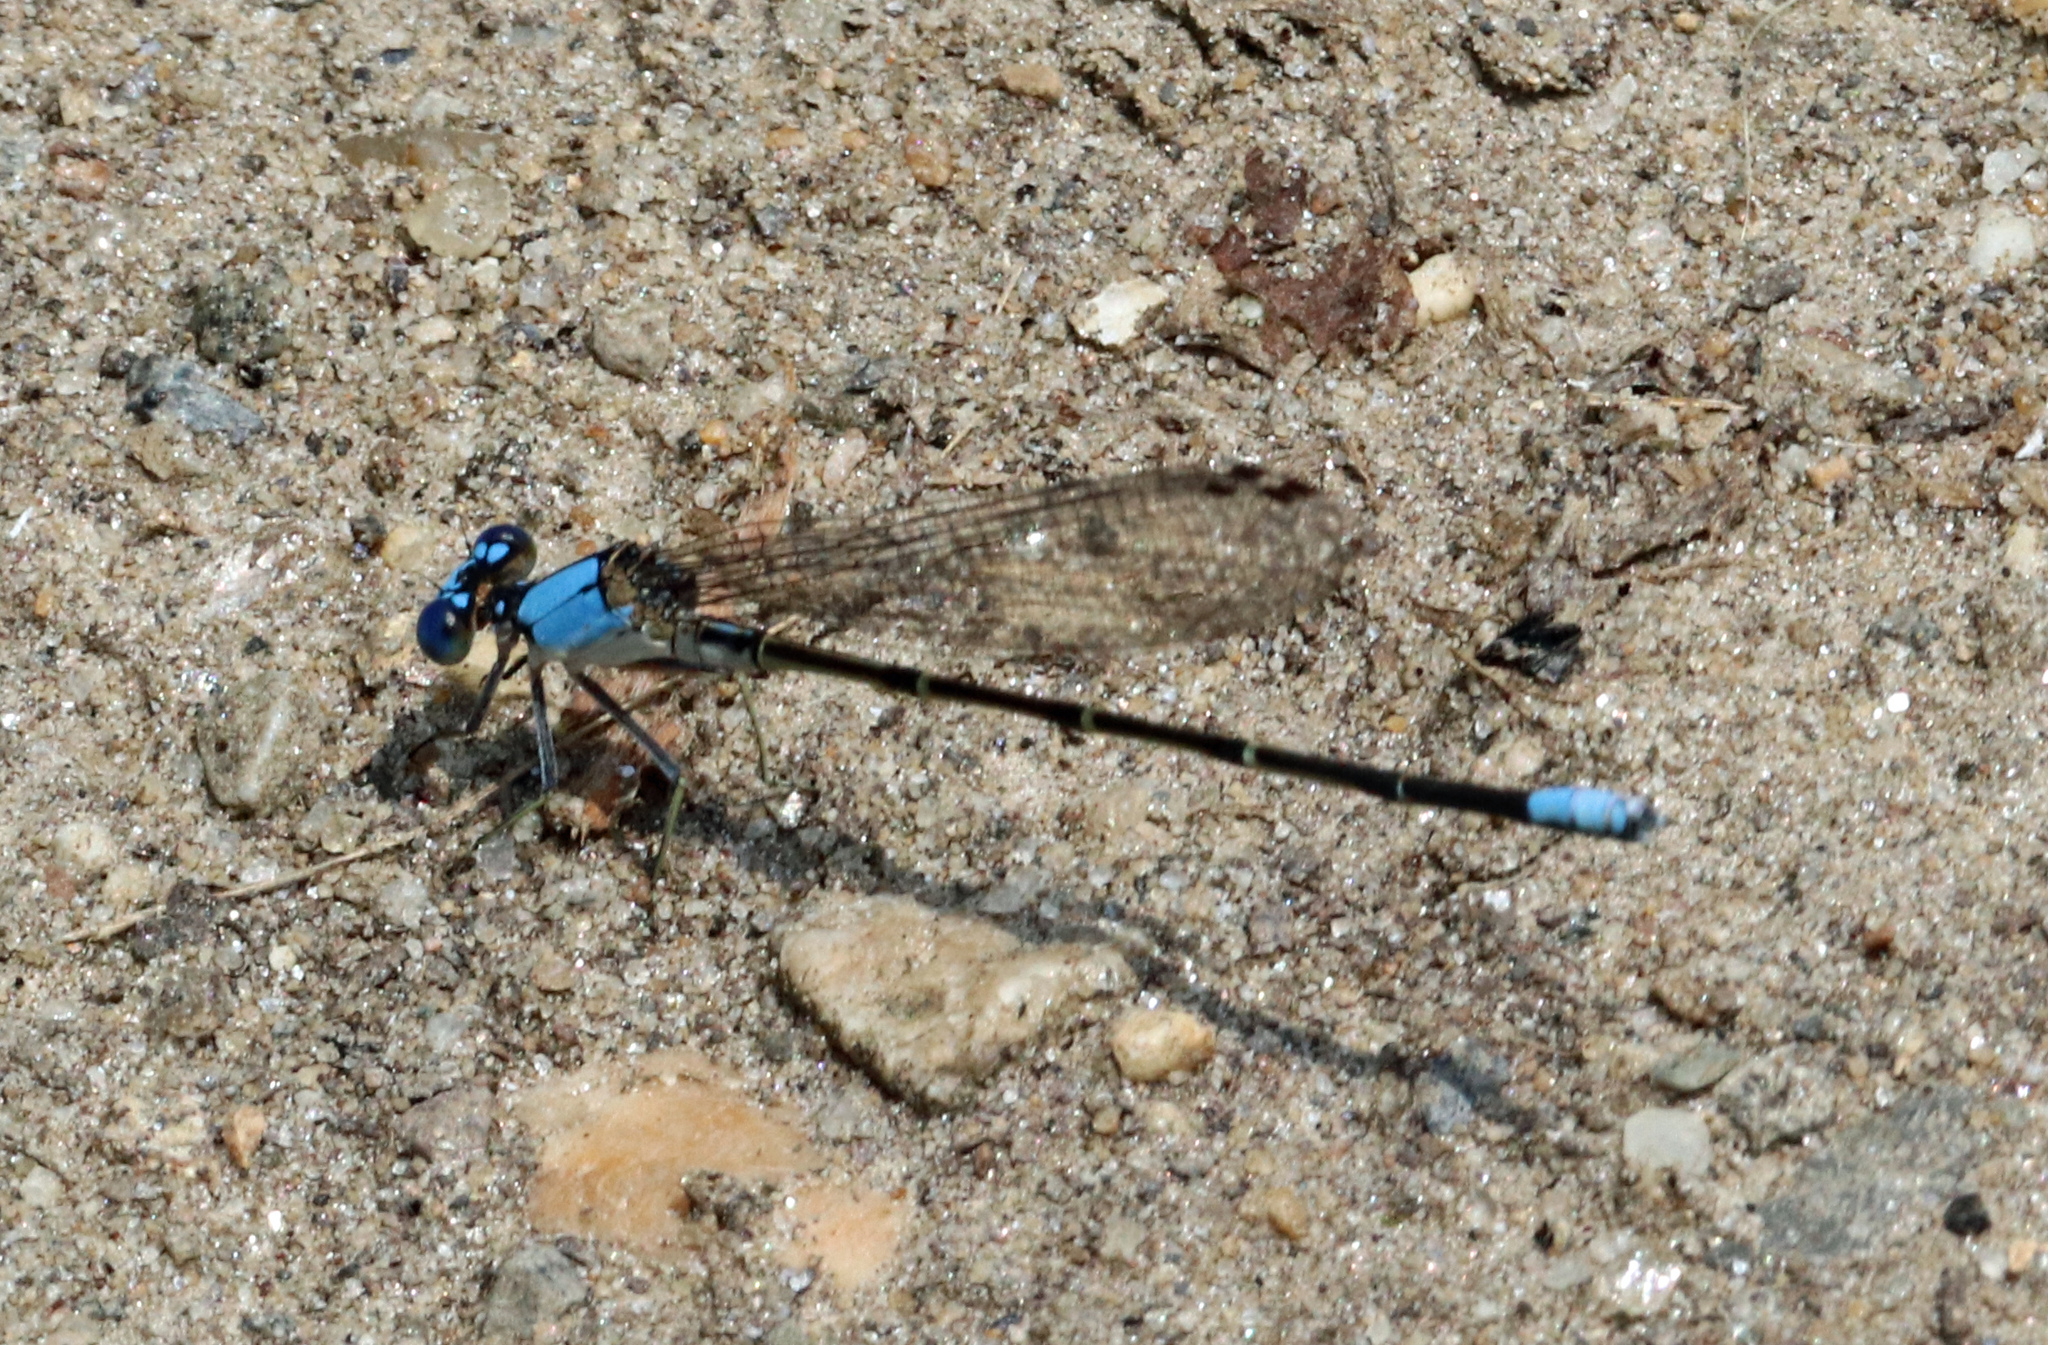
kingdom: Animalia
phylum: Arthropoda
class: Insecta
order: Odonata
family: Coenagrionidae
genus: Argia
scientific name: Argia apicalis
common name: Blue-fronted dancer
